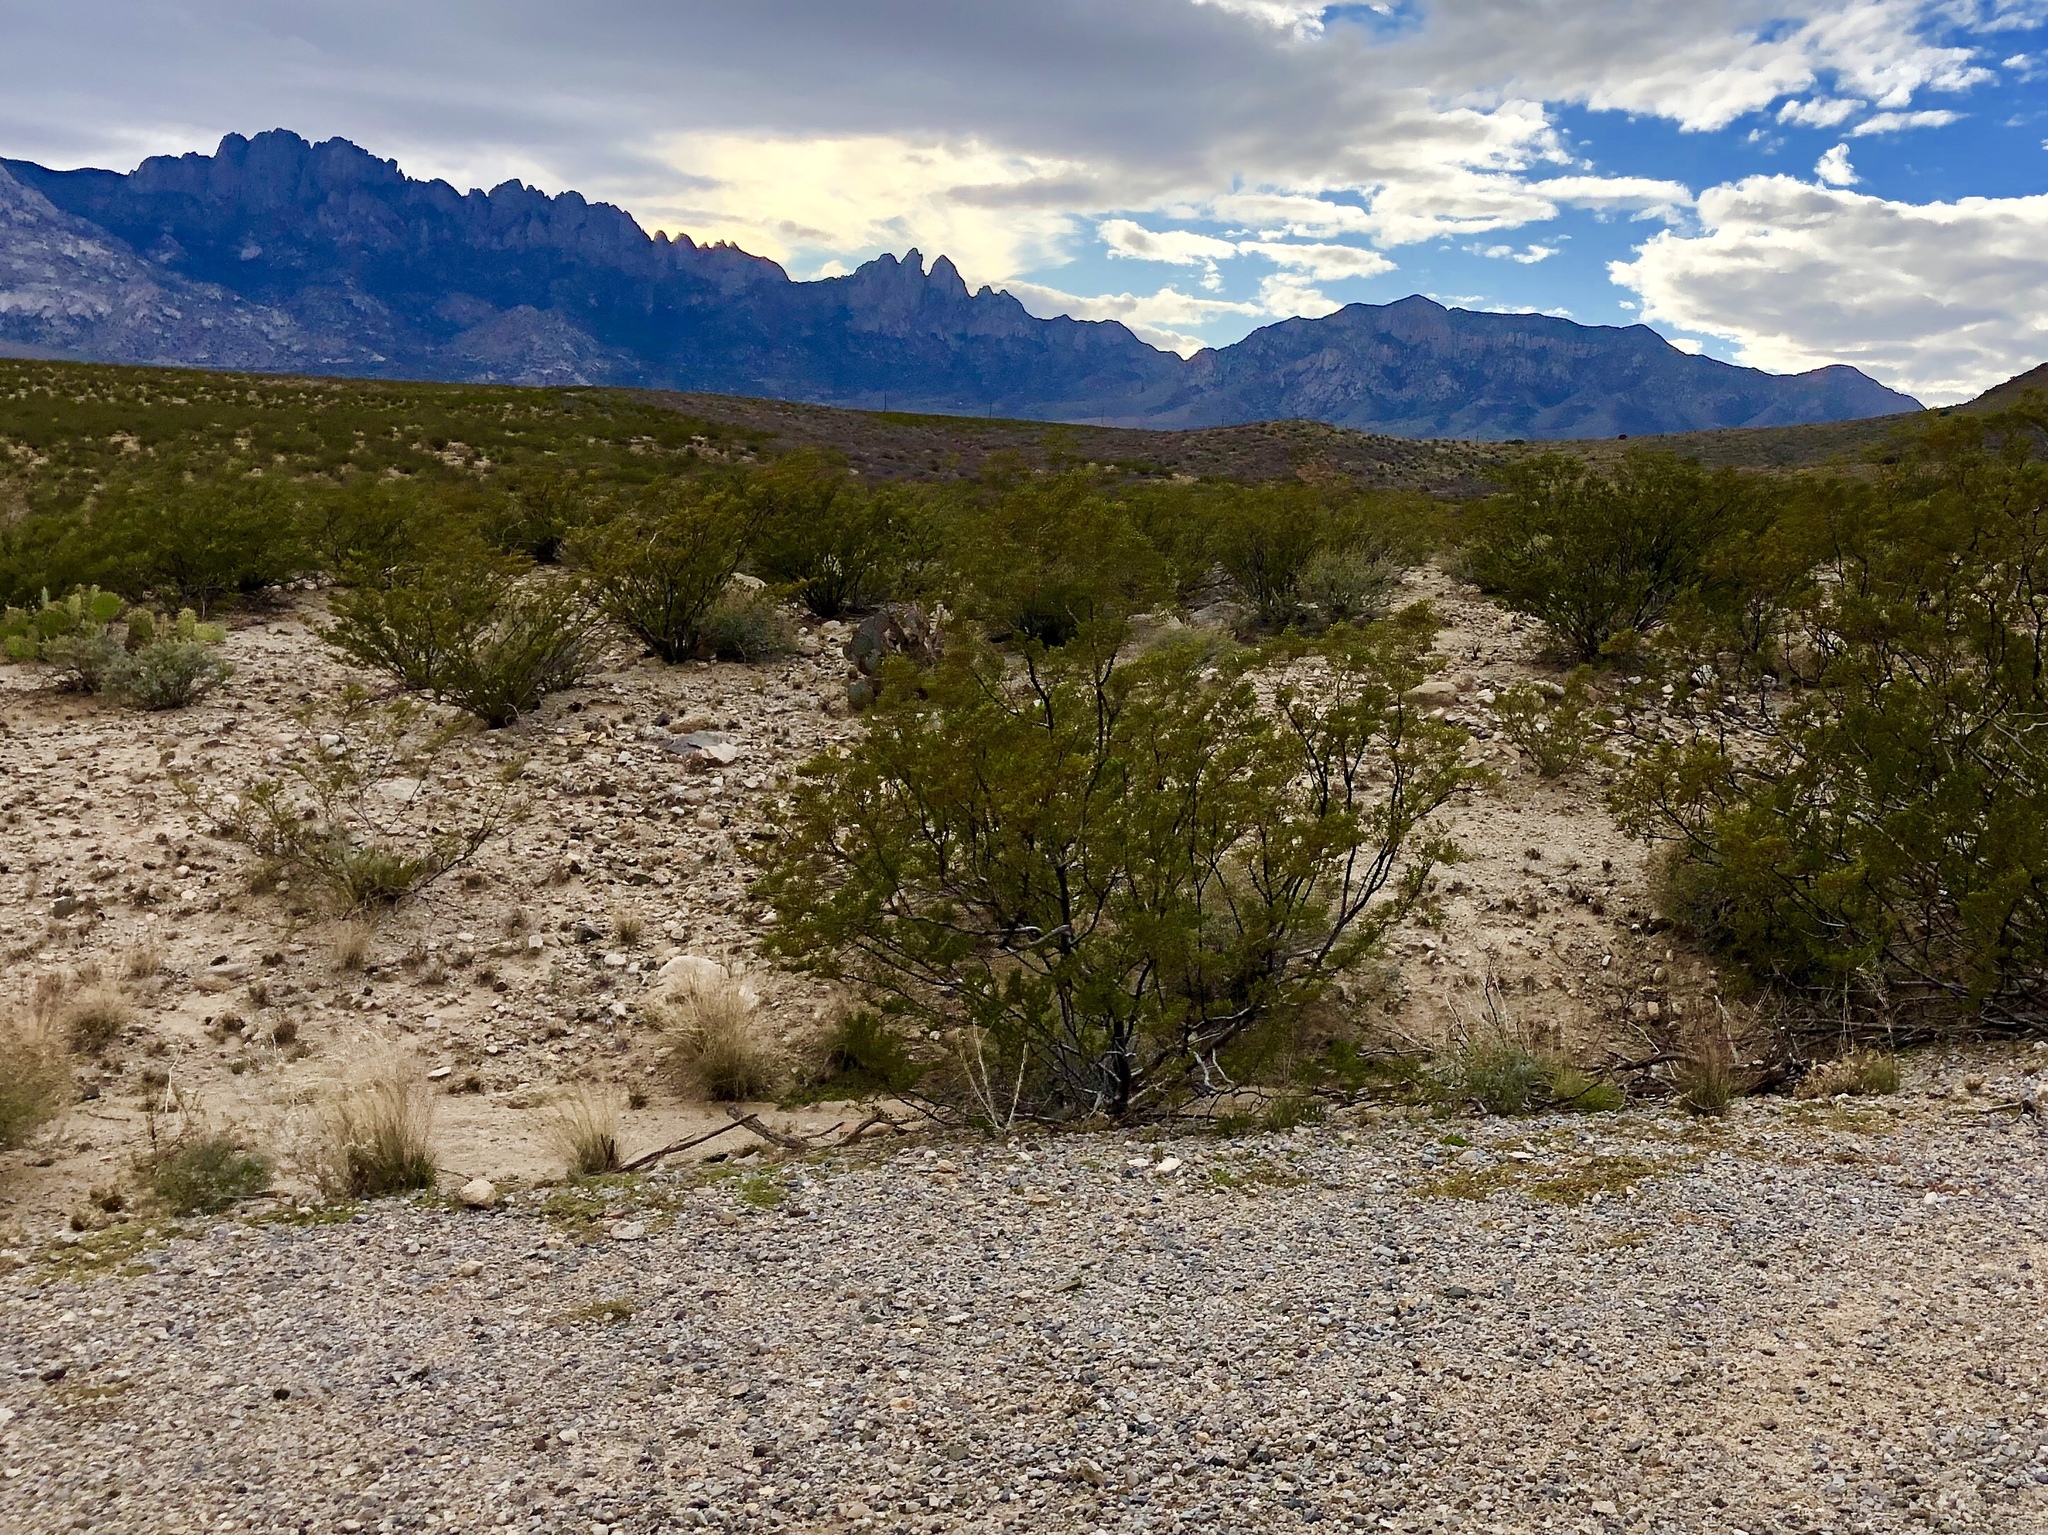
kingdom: Plantae
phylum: Tracheophyta
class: Magnoliopsida
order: Zygophyllales
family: Zygophyllaceae
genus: Larrea
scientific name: Larrea tridentata
